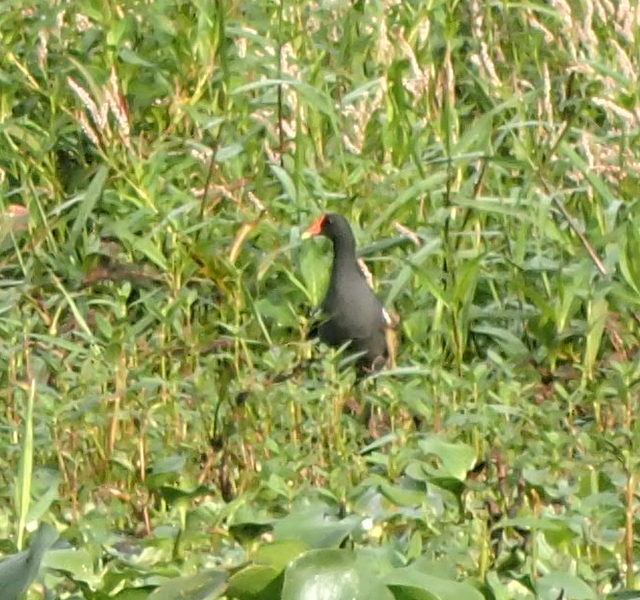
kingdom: Animalia
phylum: Chordata
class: Aves
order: Gruiformes
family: Rallidae
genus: Gallinula
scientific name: Gallinula chloropus
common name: Common moorhen
